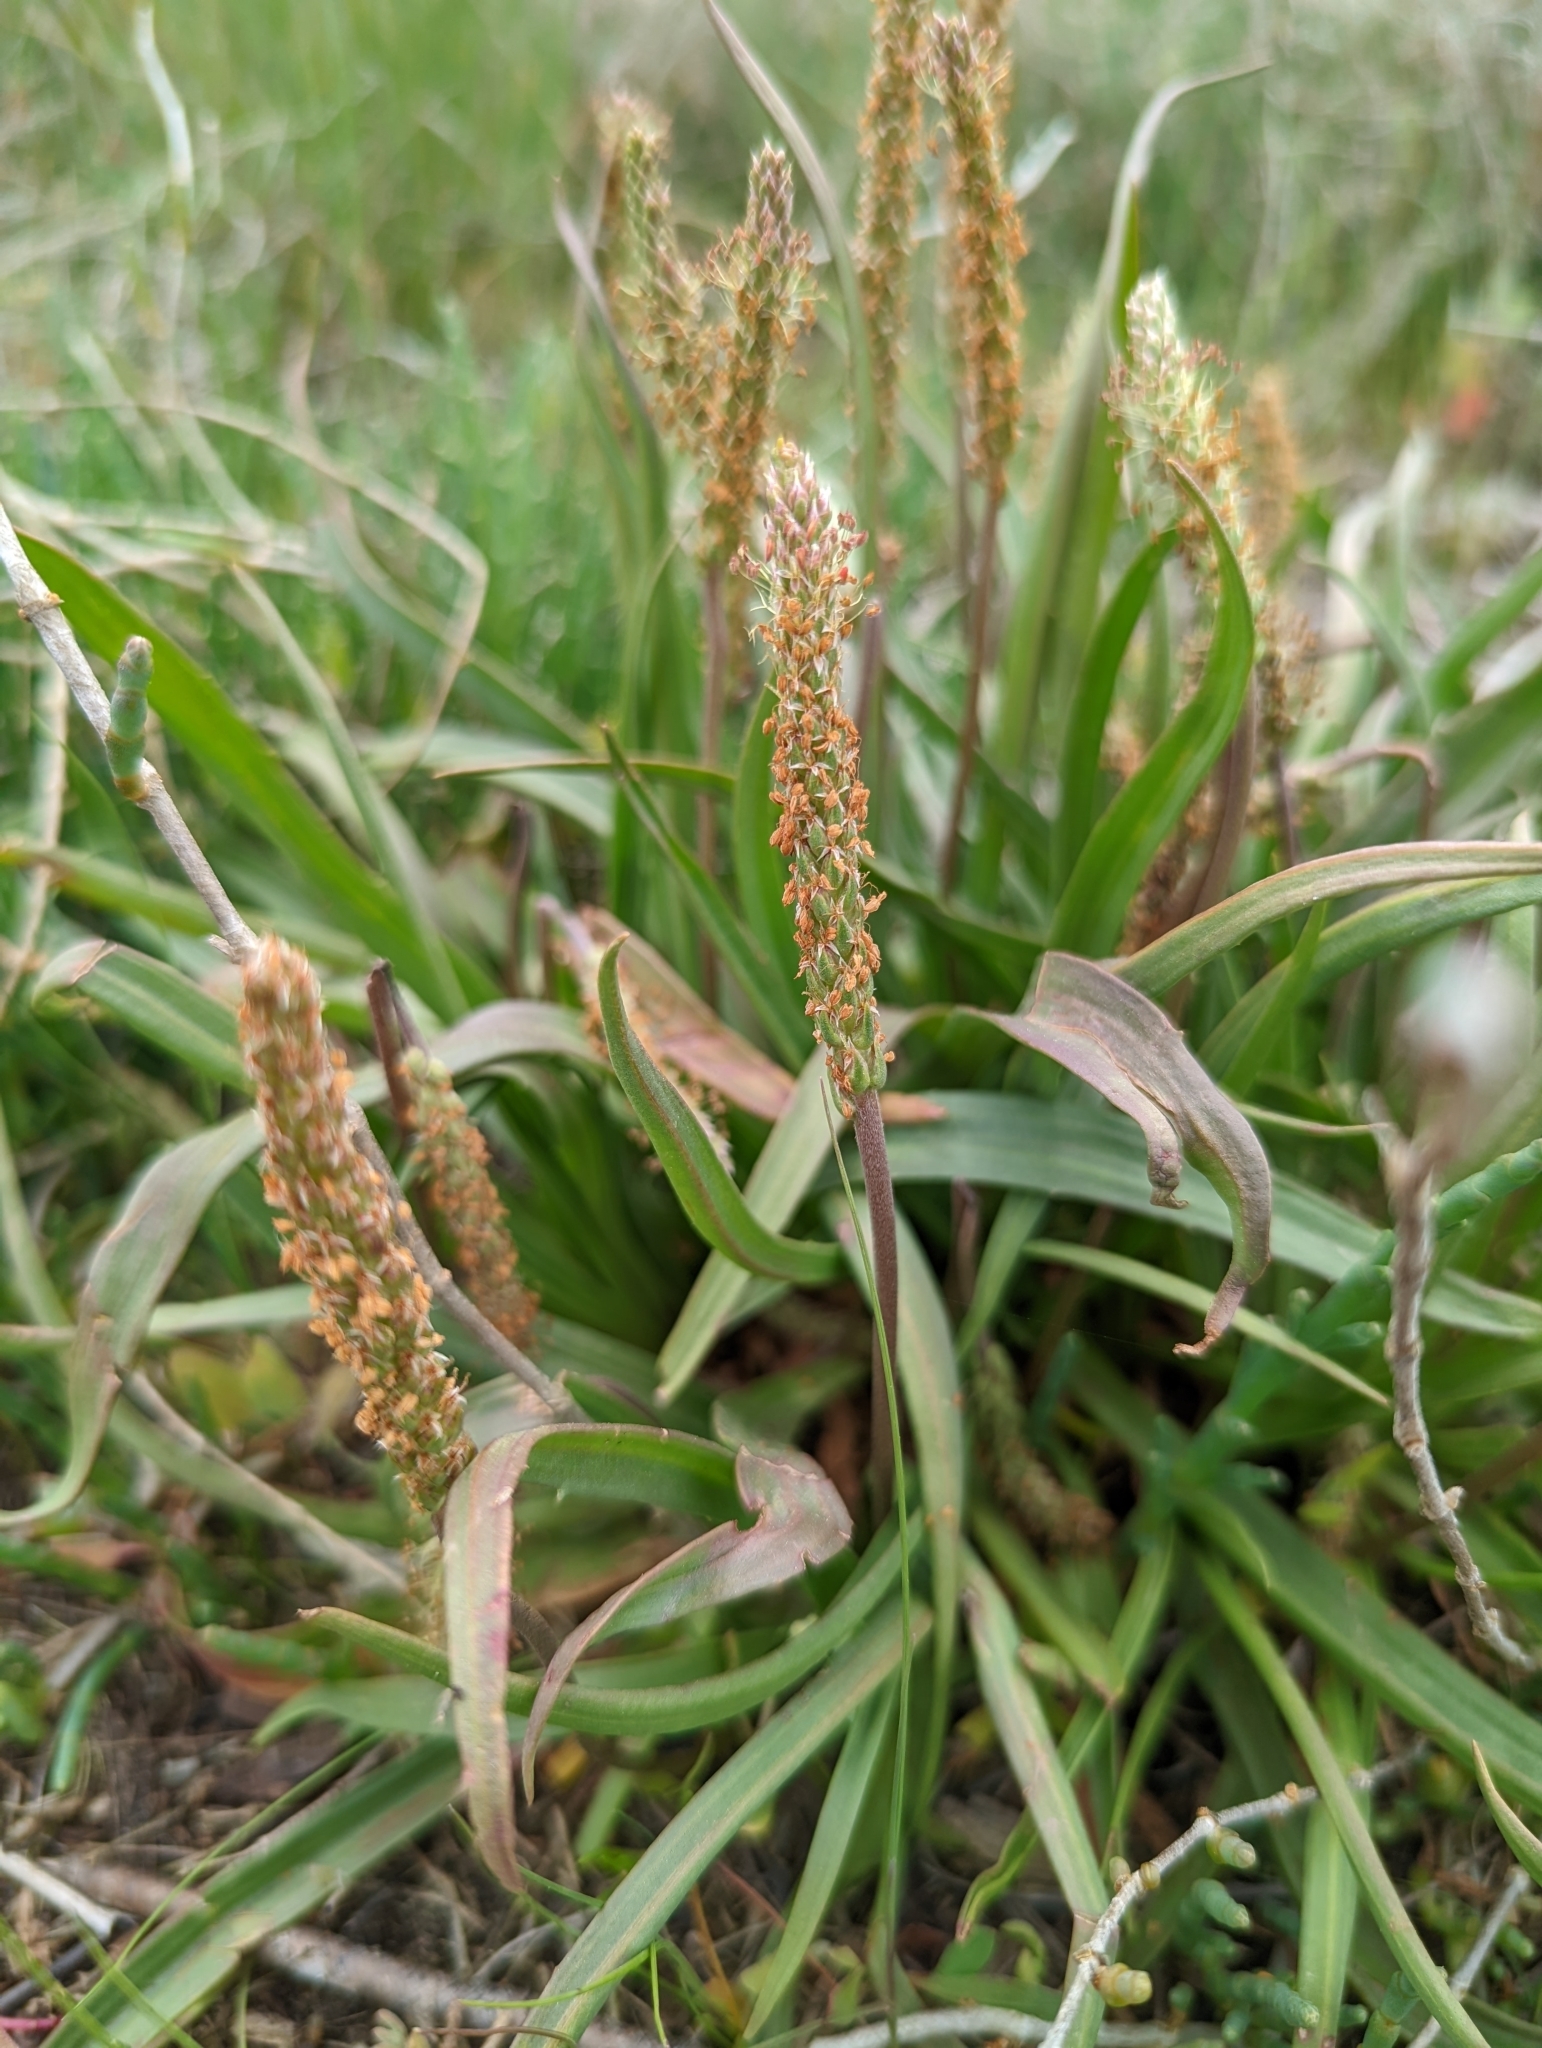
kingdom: Plantae
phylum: Tracheophyta
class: Magnoliopsida
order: Lamiales
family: Plantaginaceae
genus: Plantago
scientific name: Plantago maritima
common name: Sea plantain
